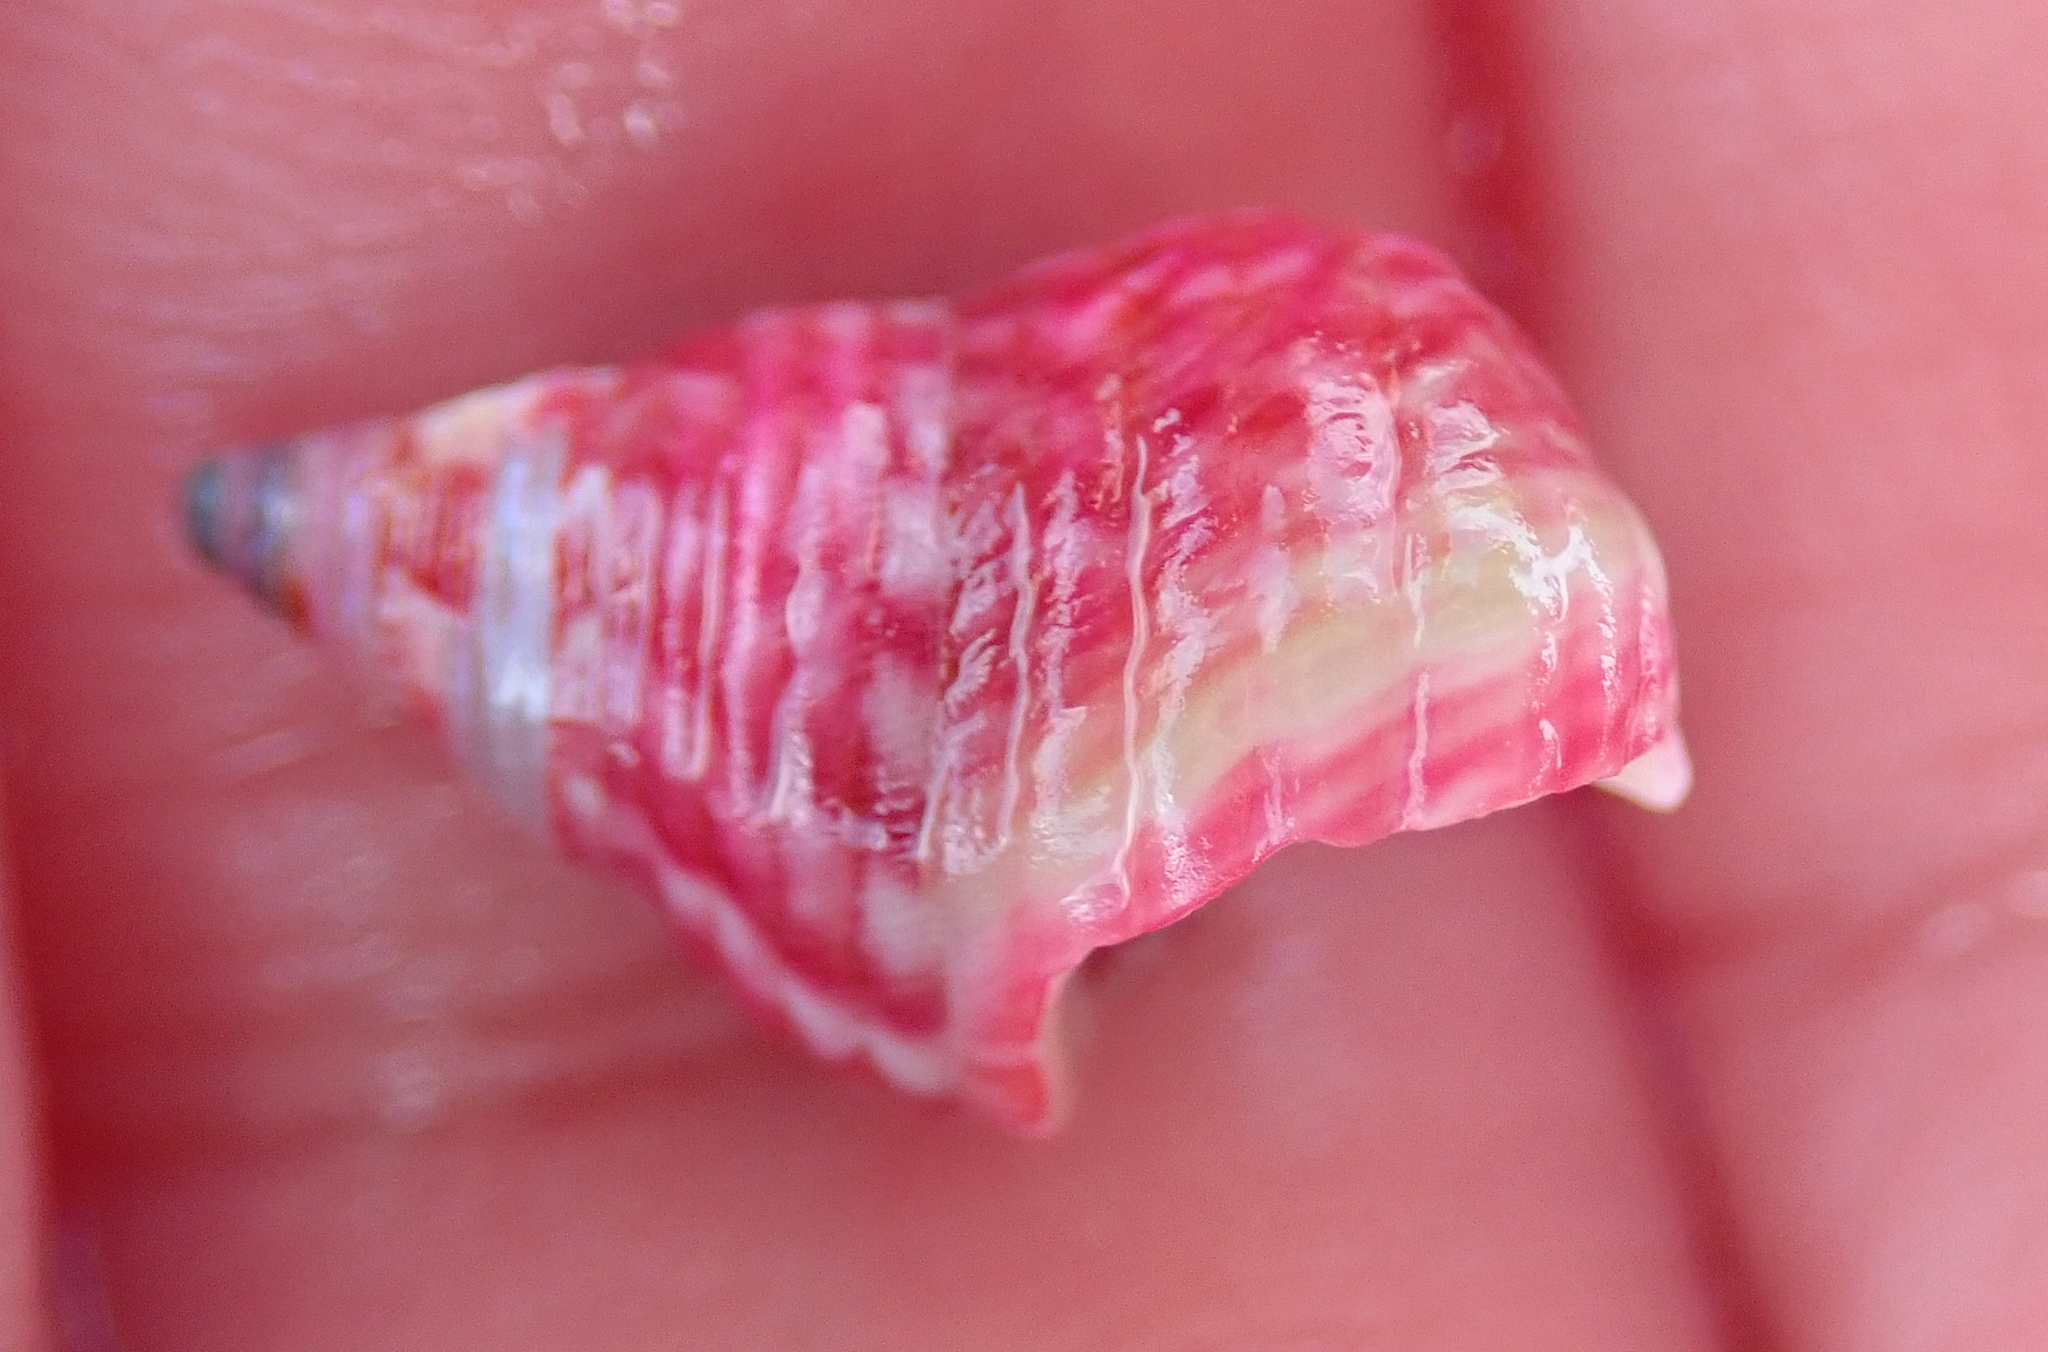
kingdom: Animalia
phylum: Mollusca
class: Gastropoda
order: Trochida
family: Trochidae
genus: Micrelenchus
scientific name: Micrelenchus purpureus
